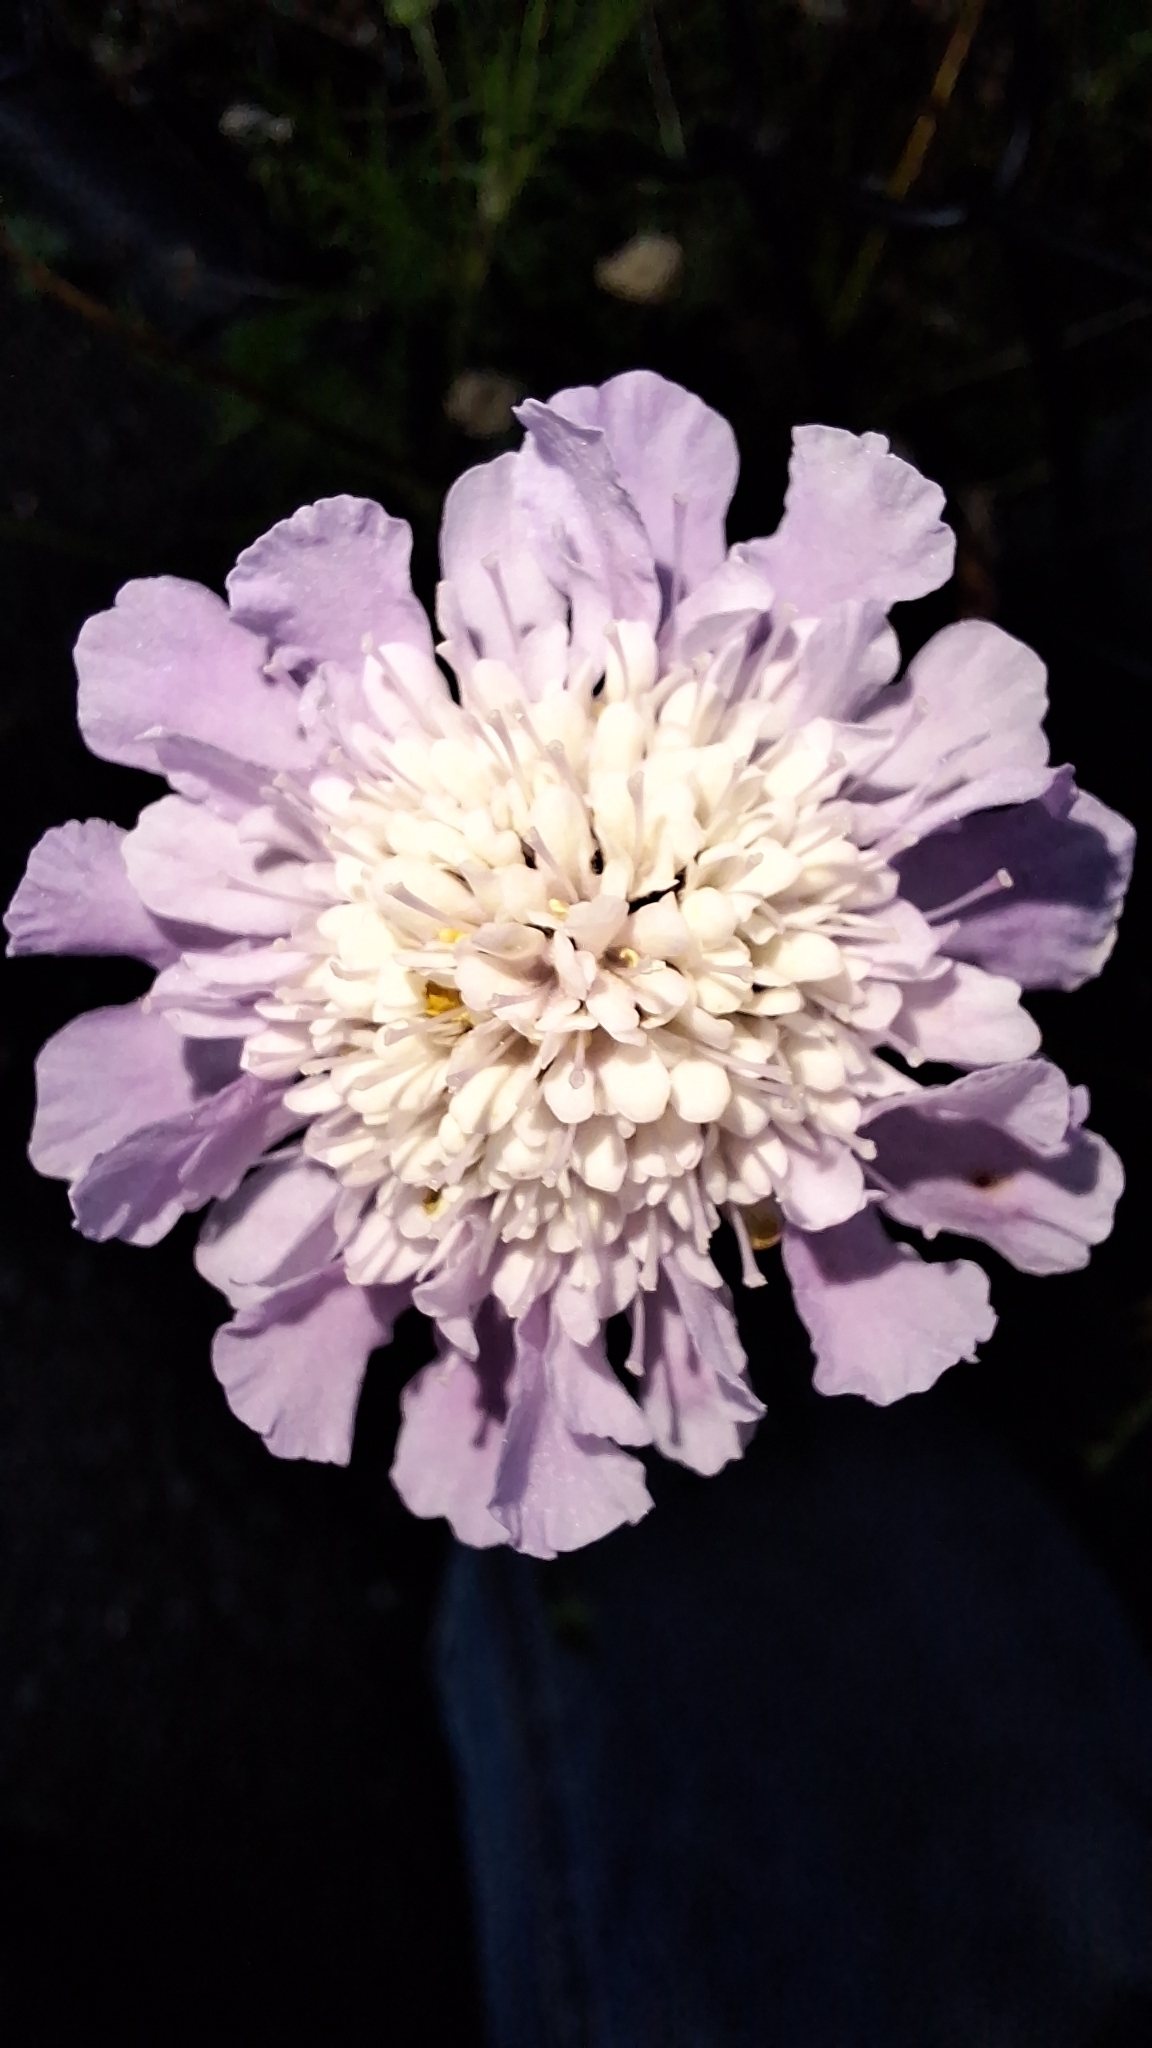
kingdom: Plantae
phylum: Tracheophyta
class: Magnoliopsida
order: Dipsacales
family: Caprifoliaceae
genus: Sixalix
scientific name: Sixalix atropurpurea
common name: Sweet scabious
